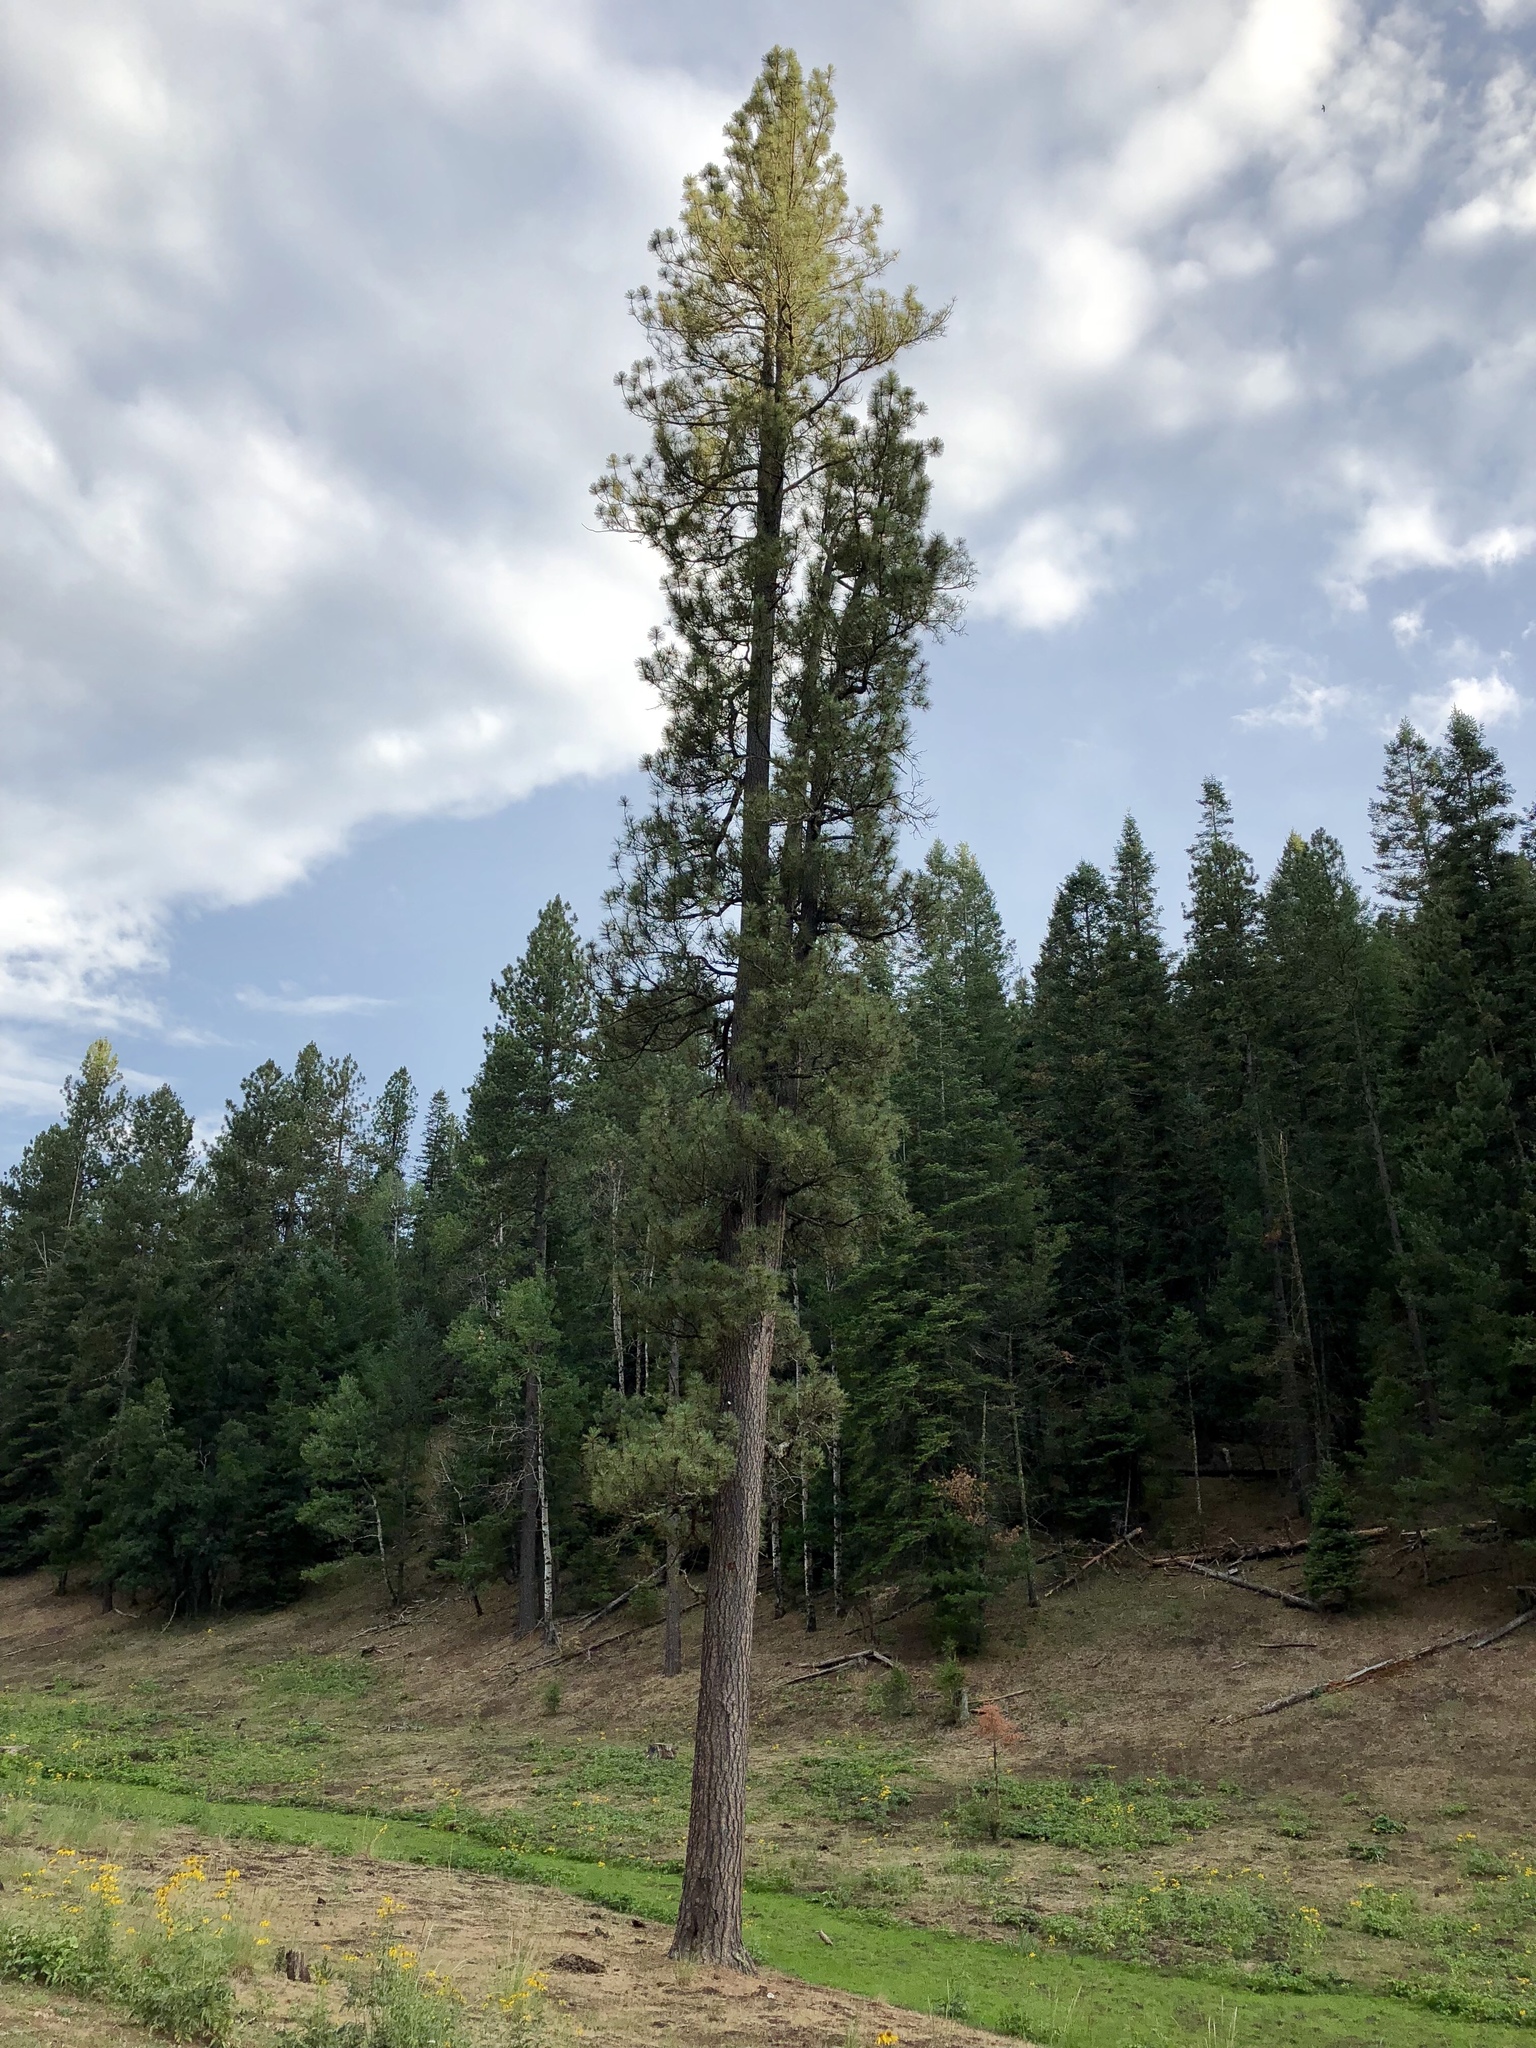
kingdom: Plantae
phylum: Tracheophyta
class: Pinopsida
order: Pinales
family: Pinaceae
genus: Pinus
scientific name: Pinus ponderosa
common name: Western yellow-pine
